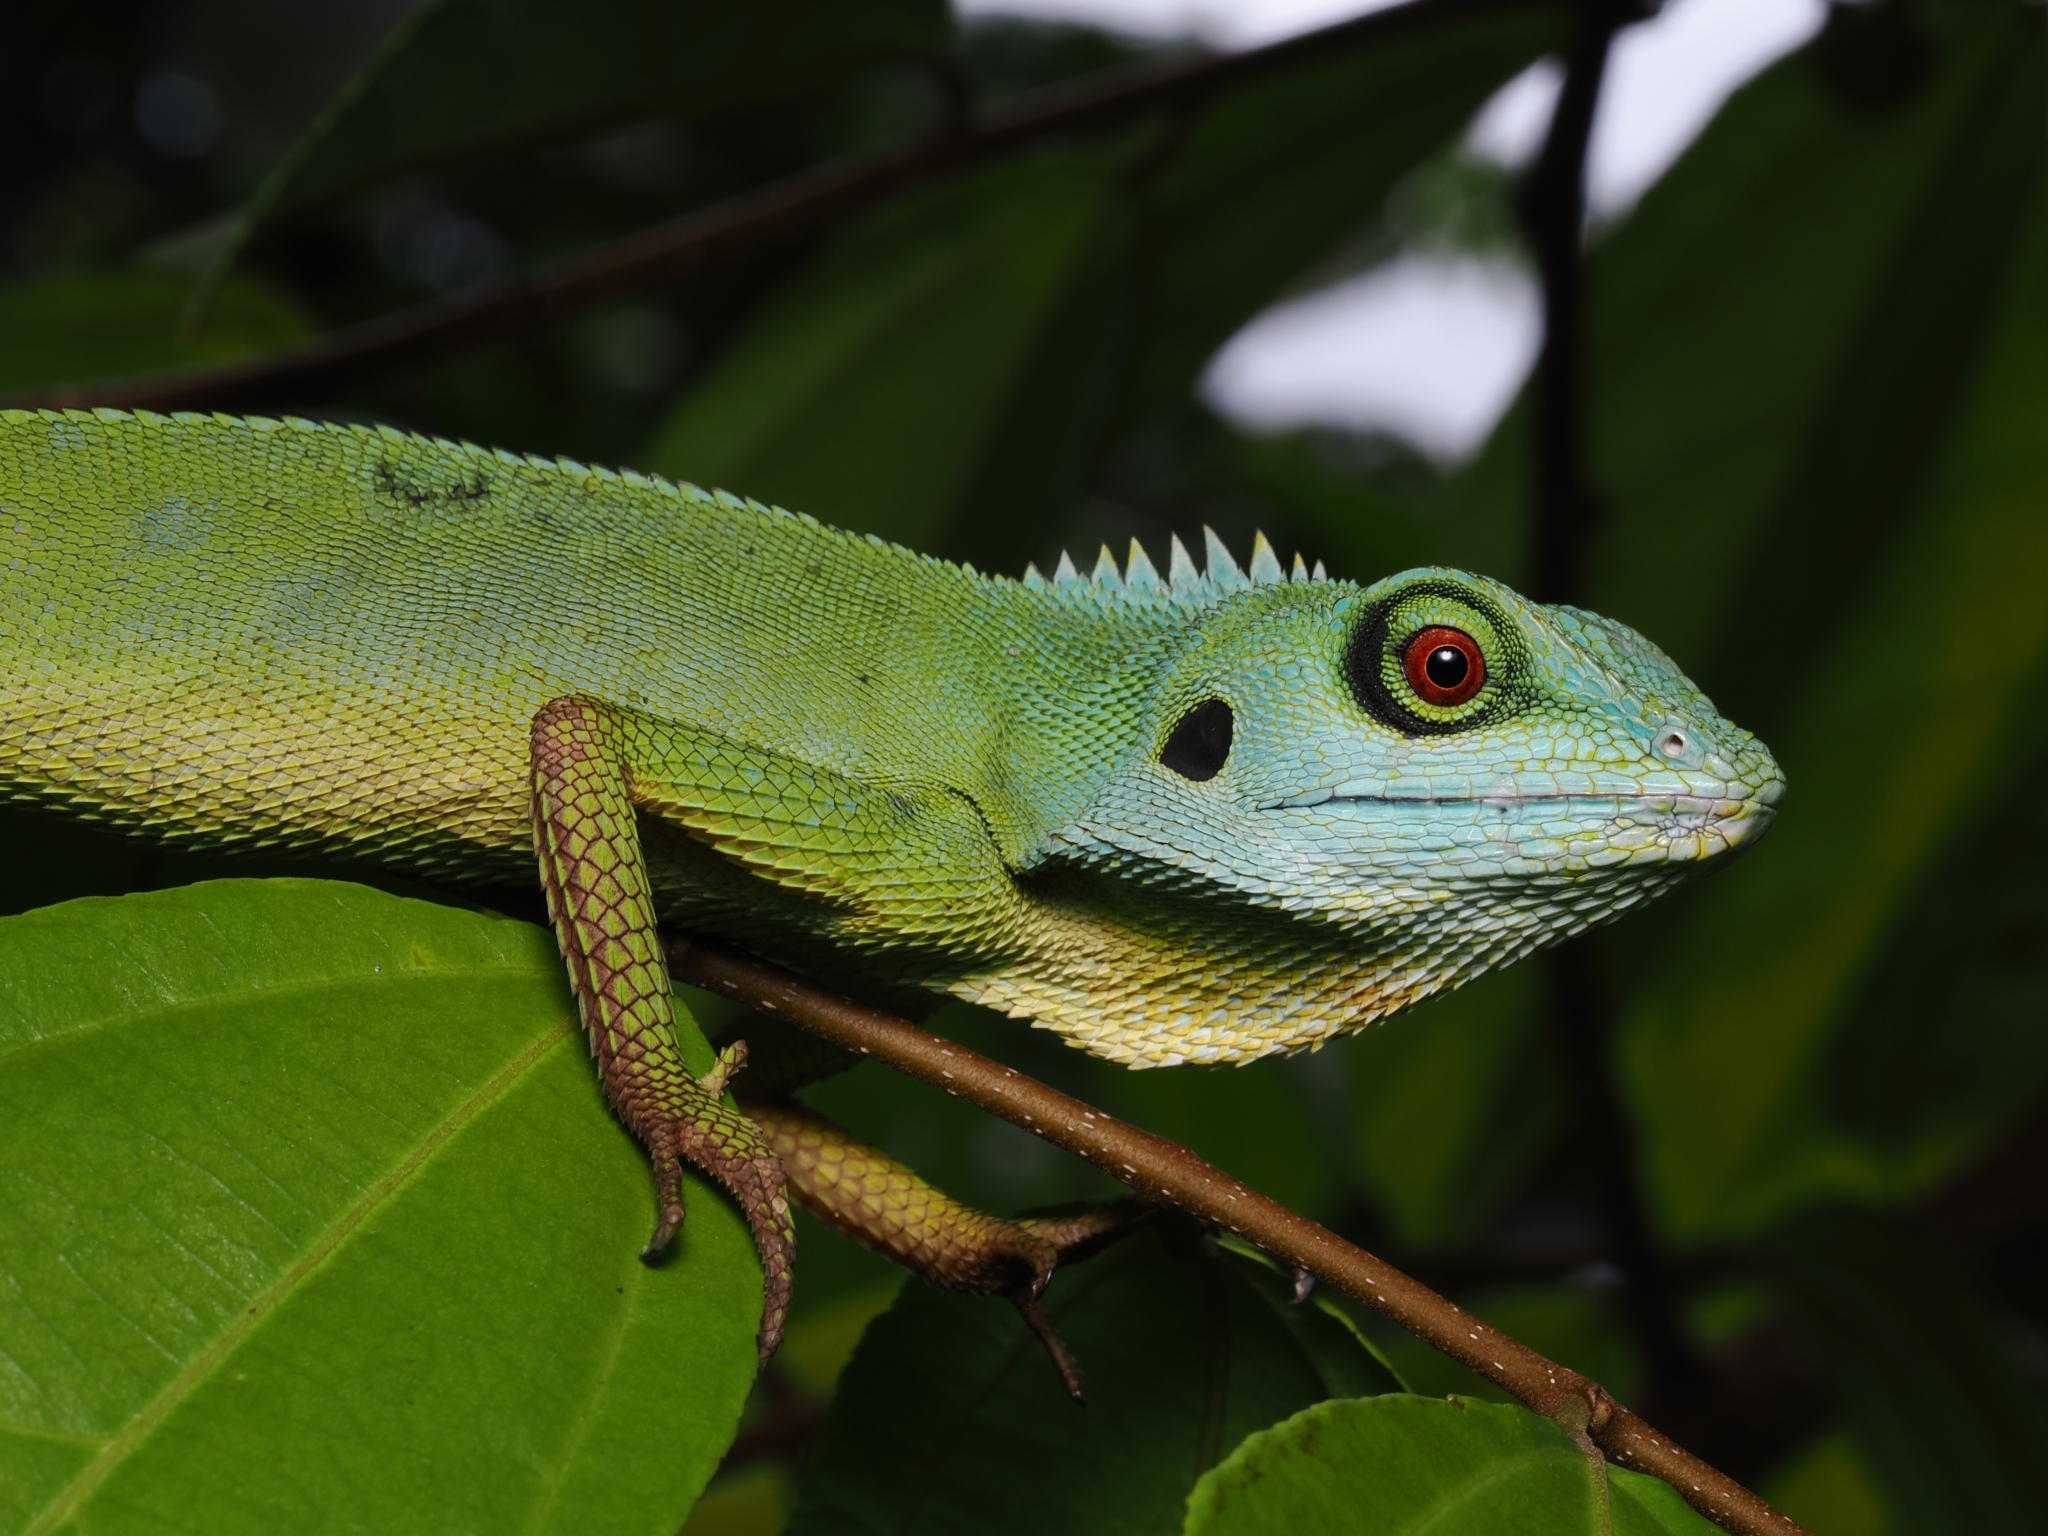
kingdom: Animalia
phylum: Chordata
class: Squamata
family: Agamidae
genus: Bronchocela
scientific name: Bronchocela cristatella
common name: Green crested lizard
